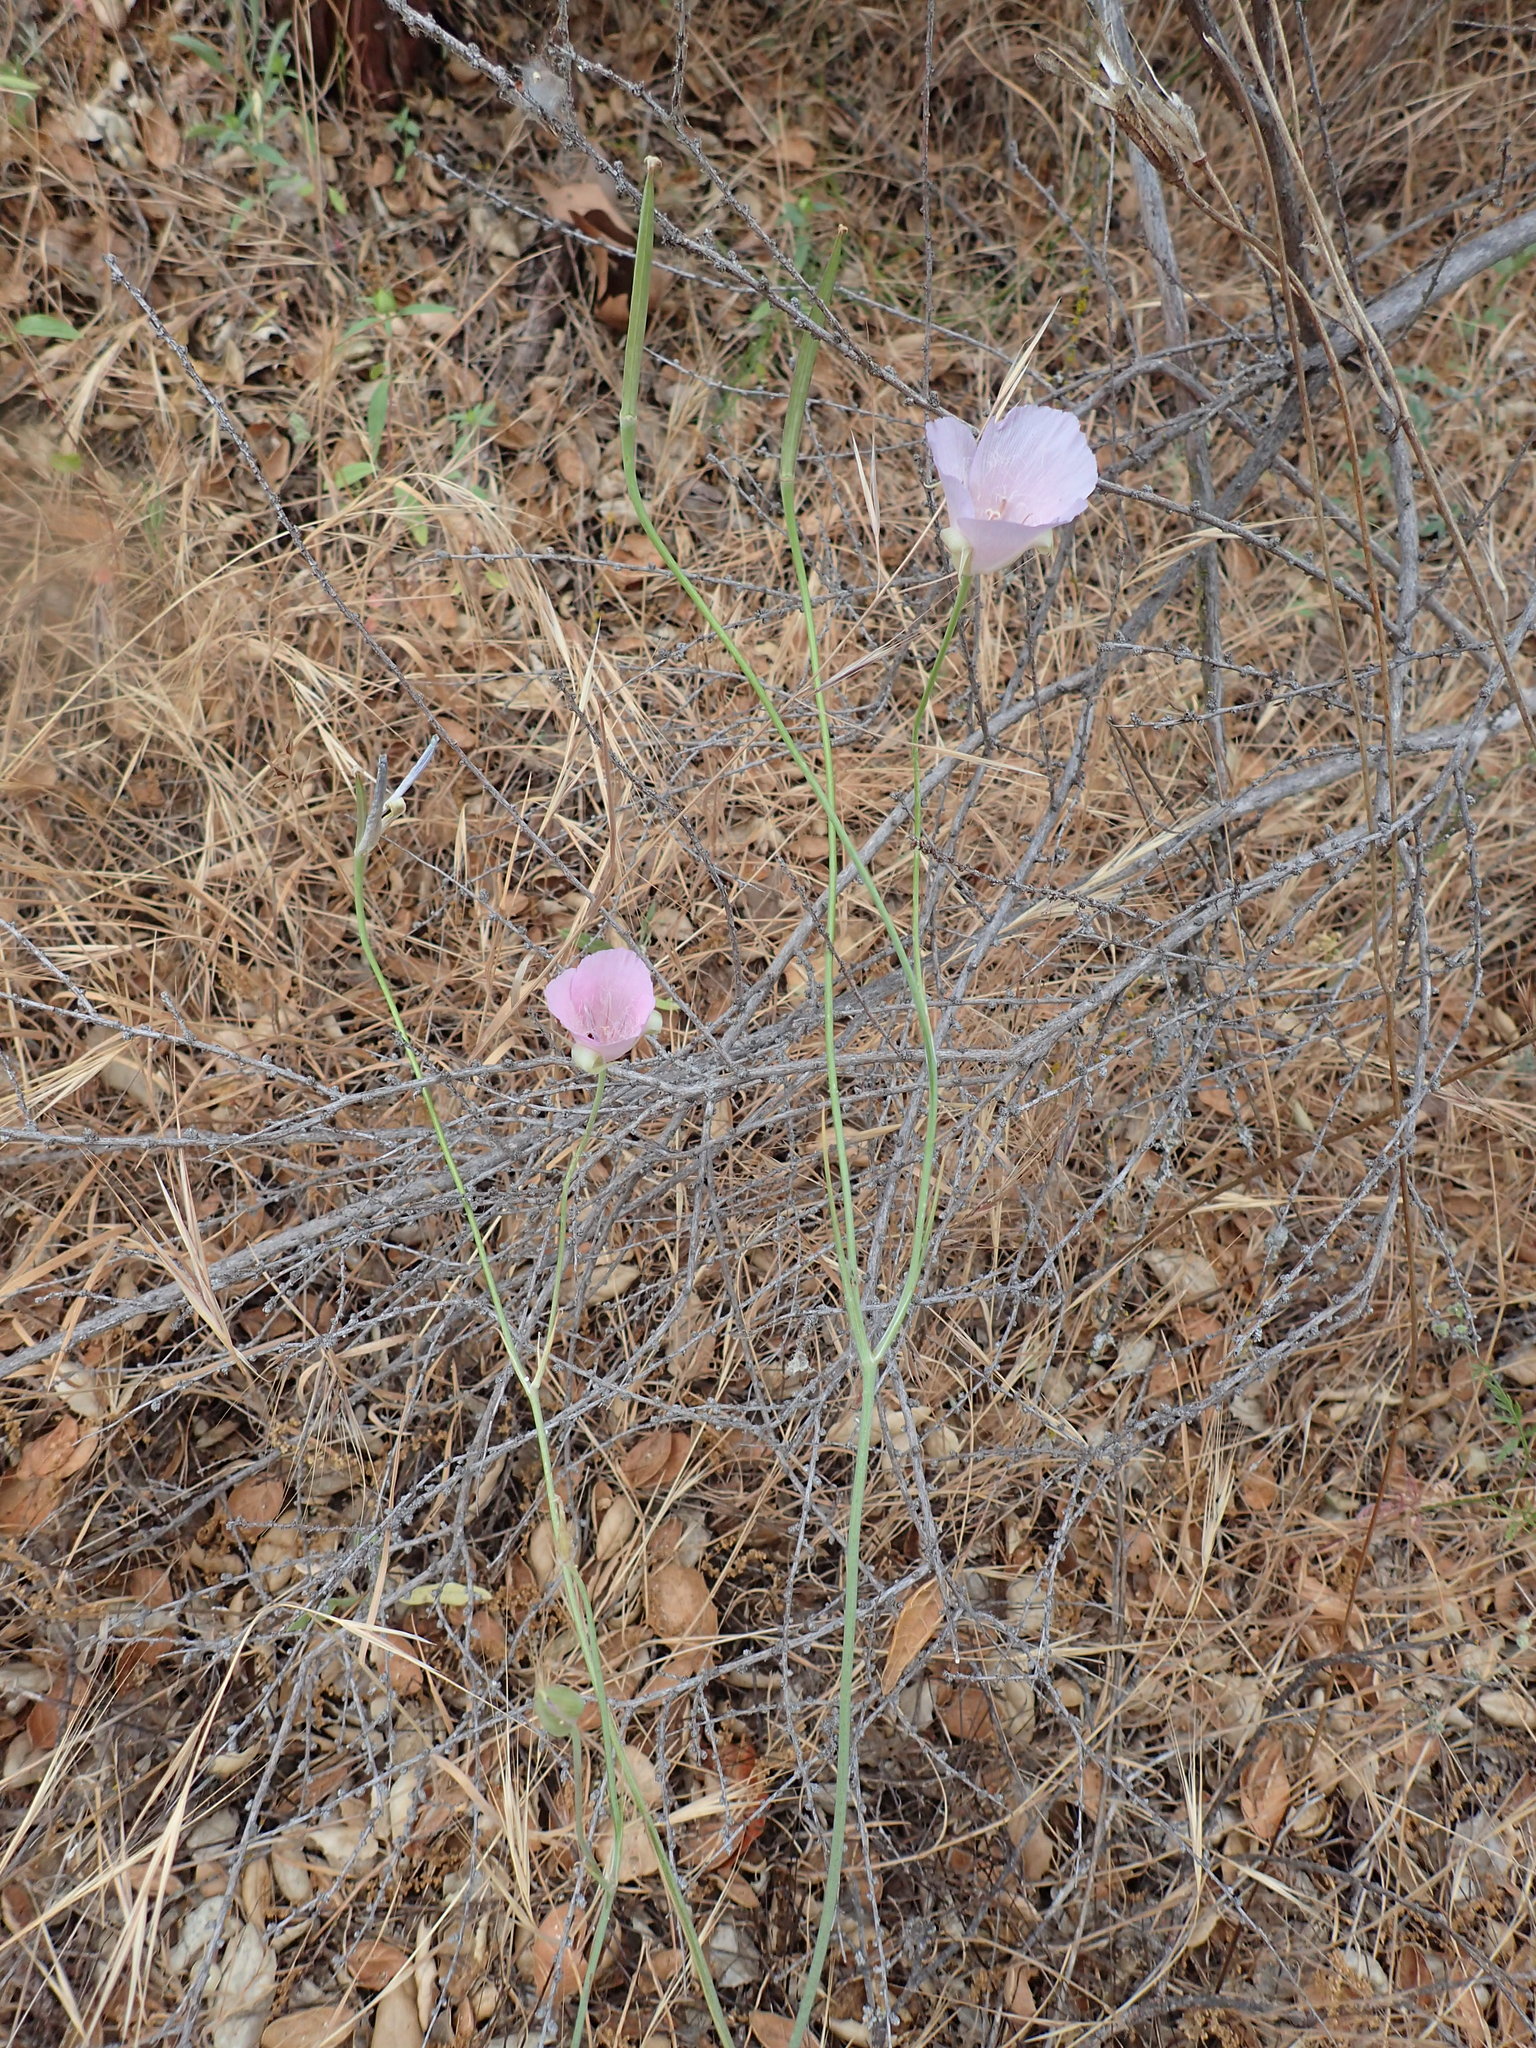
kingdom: Plantae
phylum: Tracheophyta
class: Liliopsida
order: Liliales
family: Liliaceae
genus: Calochortus
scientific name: Calochortus splendens
